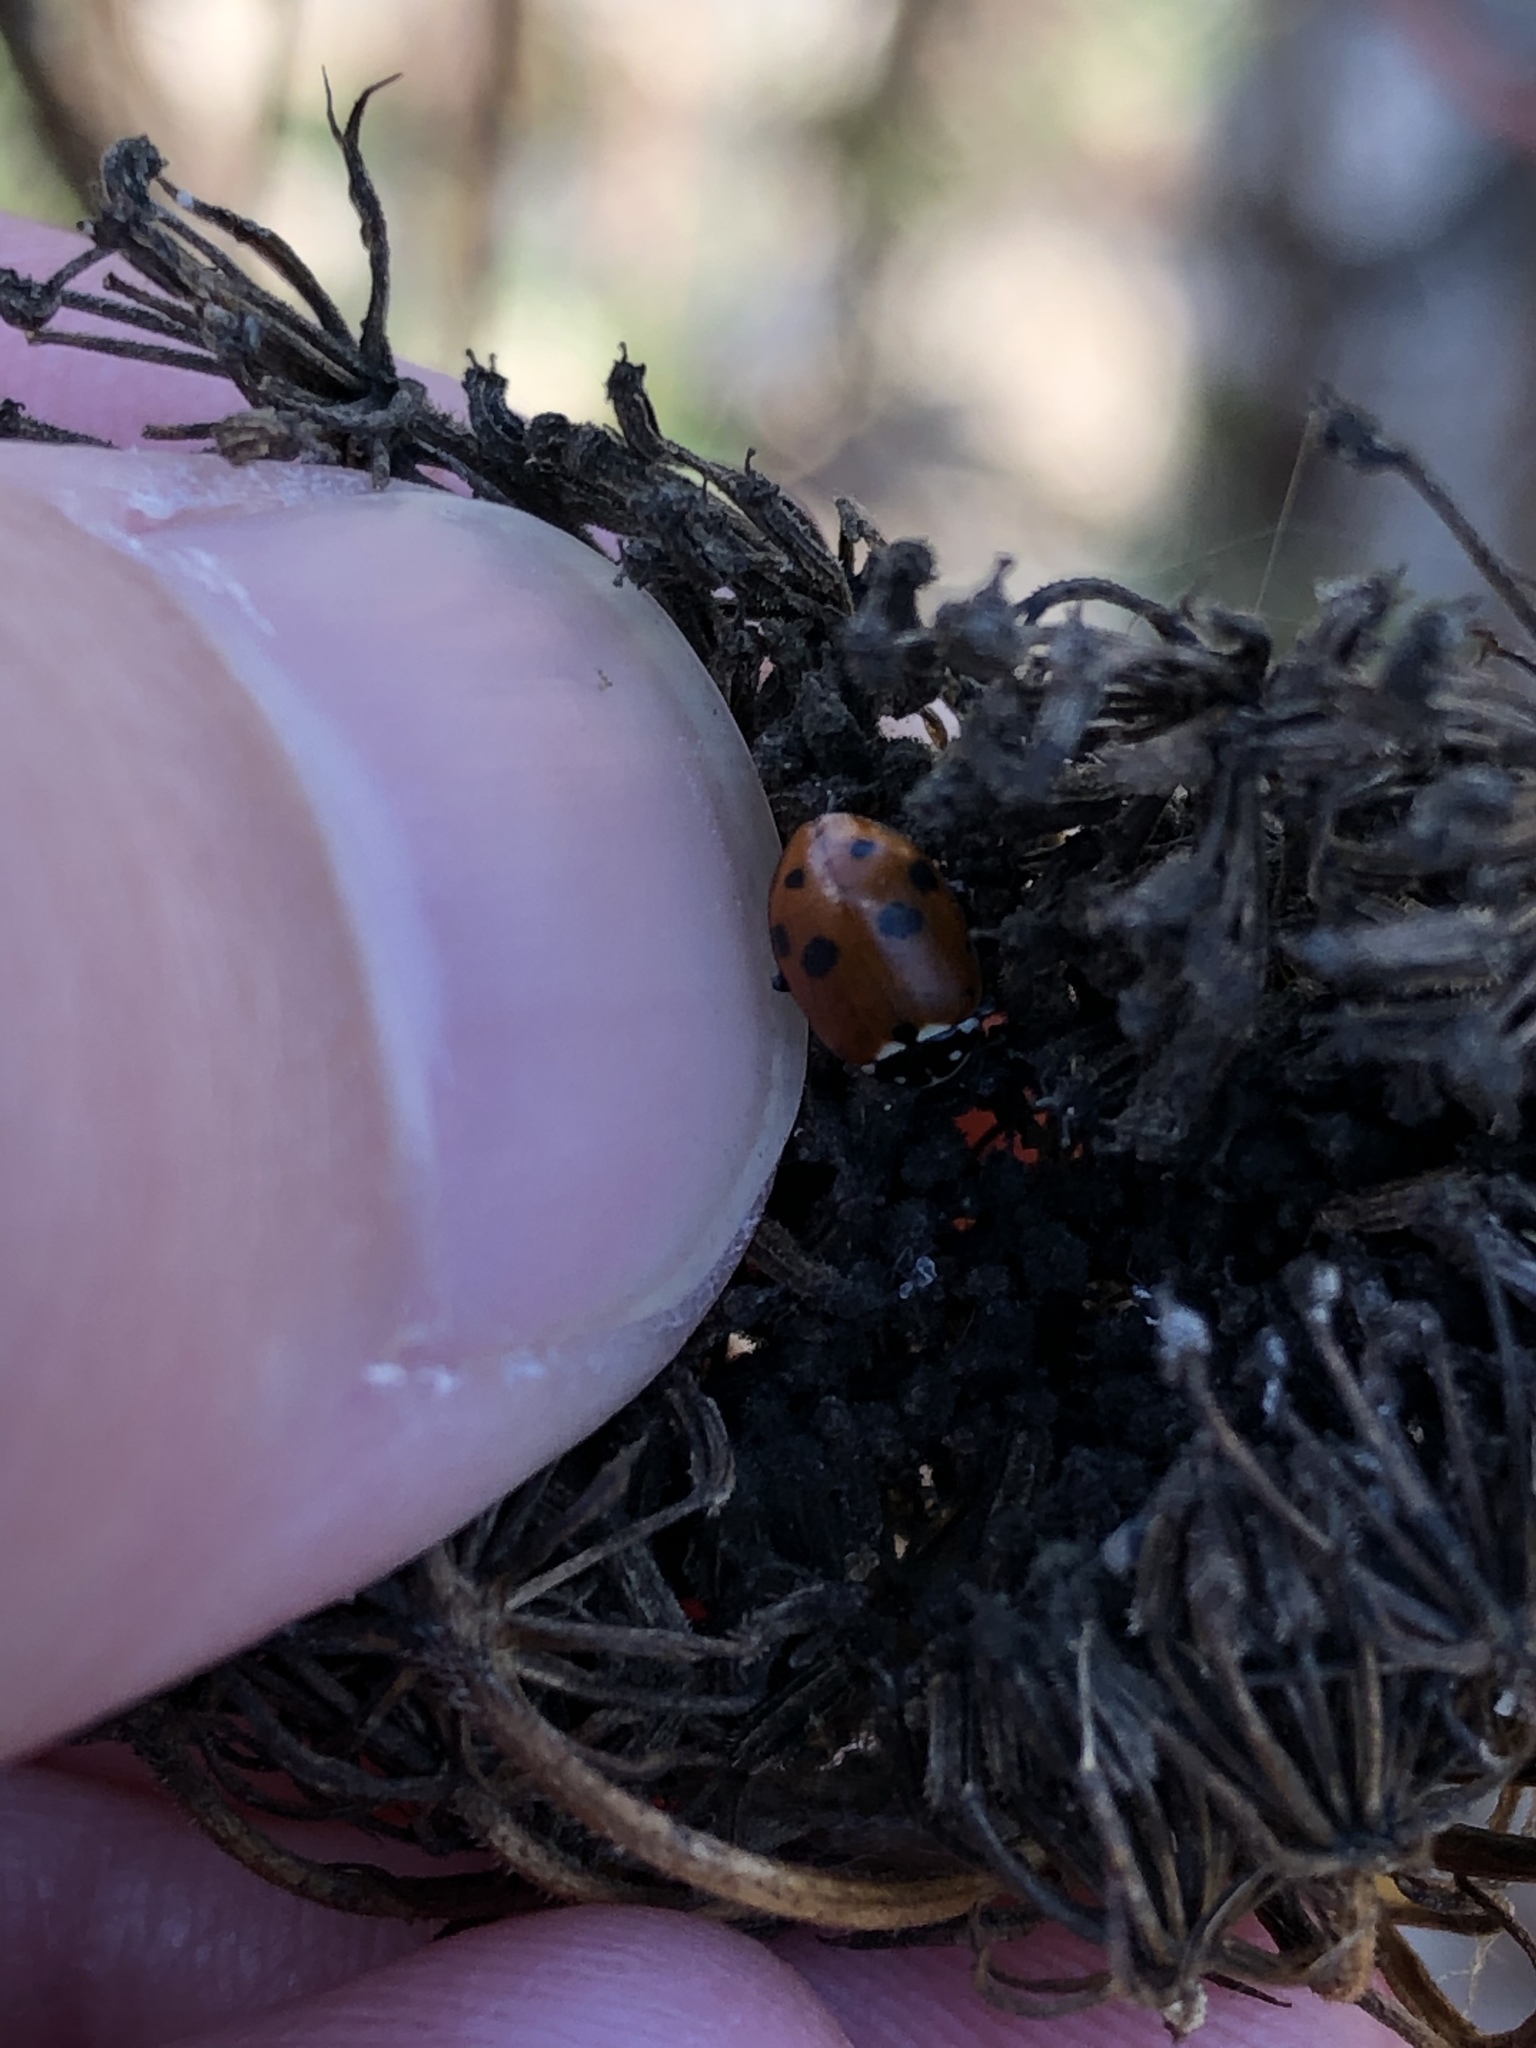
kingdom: Animalia
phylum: Arthropoda
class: Insecta
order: Coleoptera
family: Coccinellidae
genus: Hippodamia
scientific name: Hippodamia variegata
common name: Ladybird beetle
